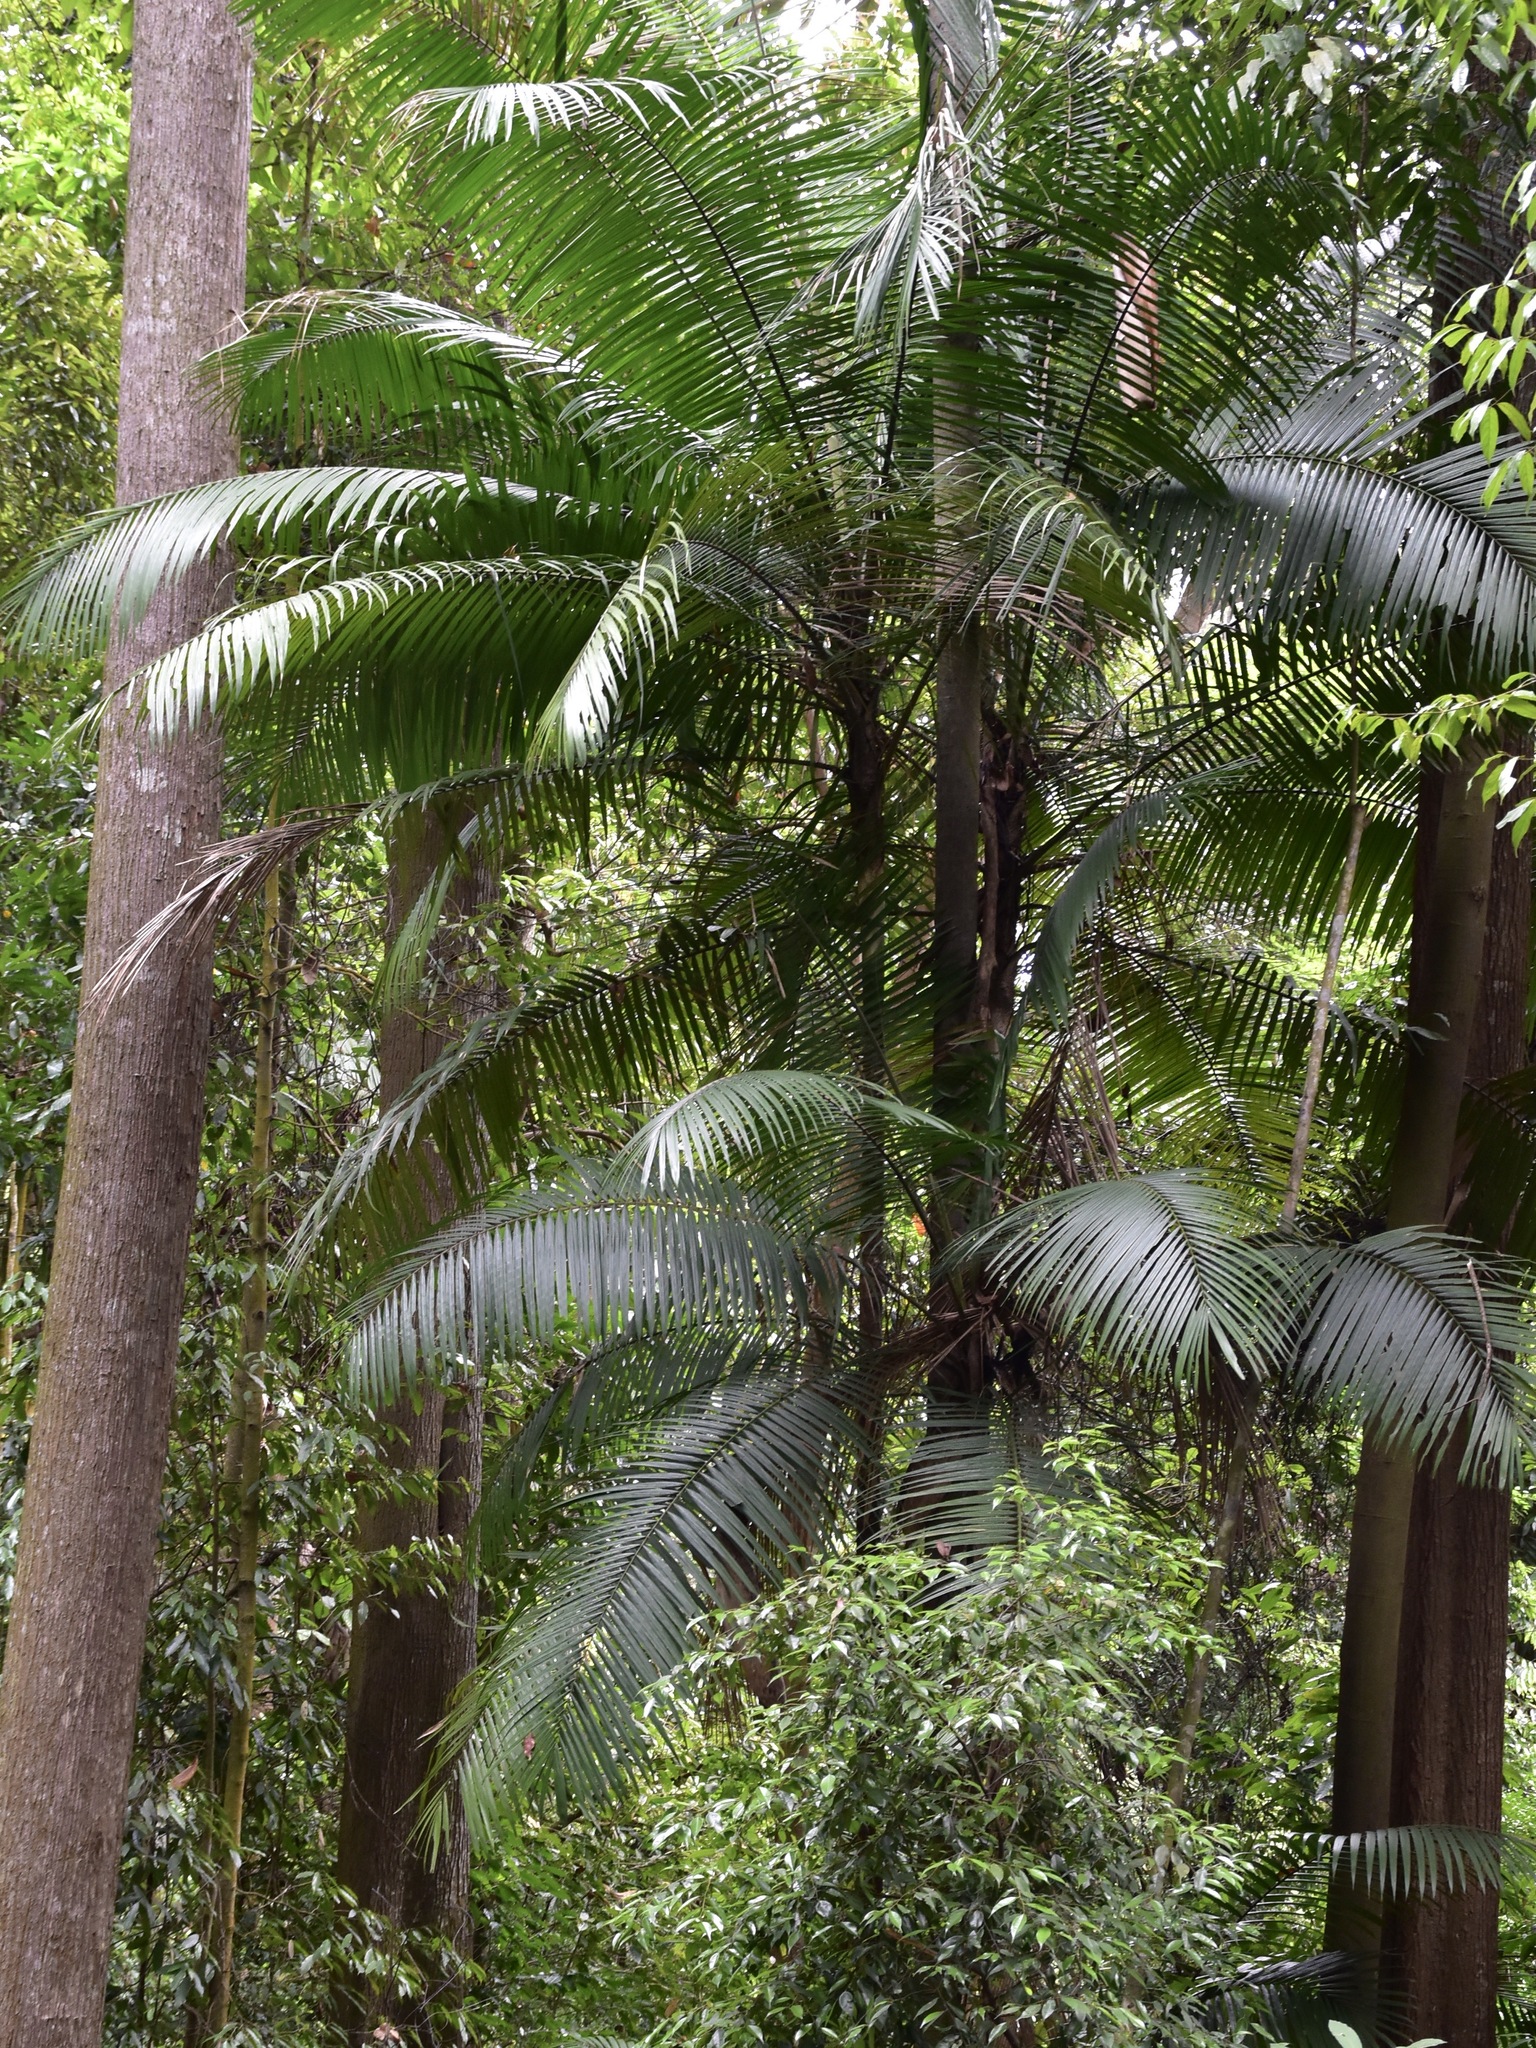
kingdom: Plantae
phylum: Tracheophyta
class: Liliopsida
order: Arecales
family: Arecaceae
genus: Oncosperma
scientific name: Oncosperma horridum
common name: Thorny palm
